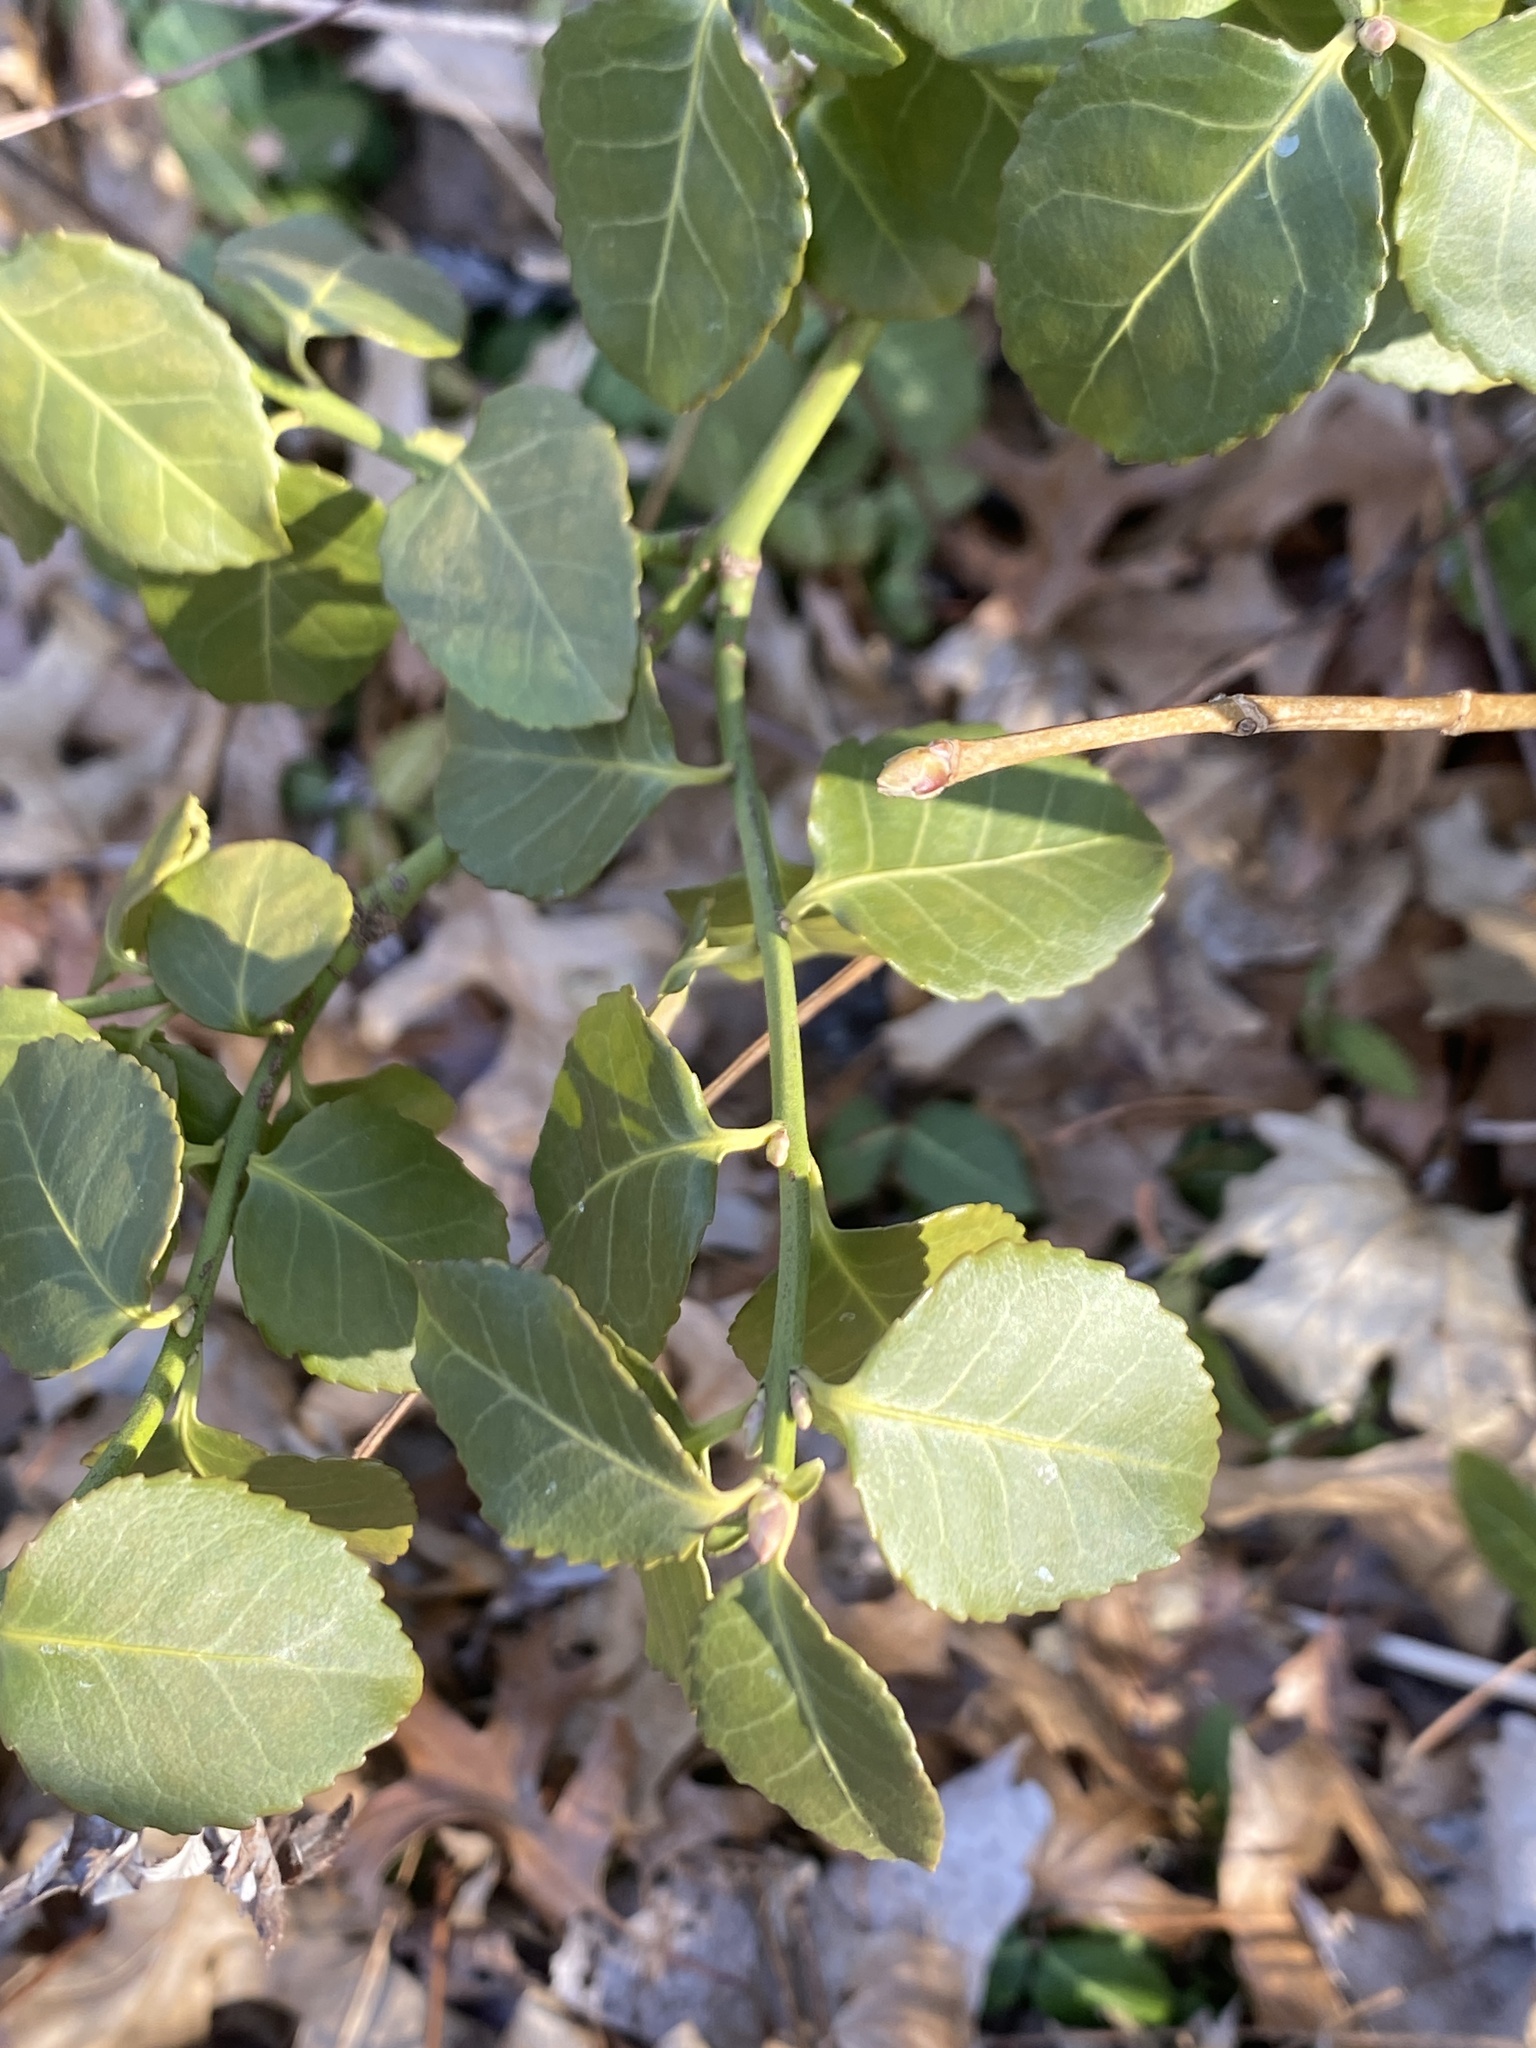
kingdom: Plantae
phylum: Tracheophyta
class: Magnoliopsida
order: Celastrales
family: Celastraceae
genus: Euonymus
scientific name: Euonymus fortunei
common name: Climbing euonymus
